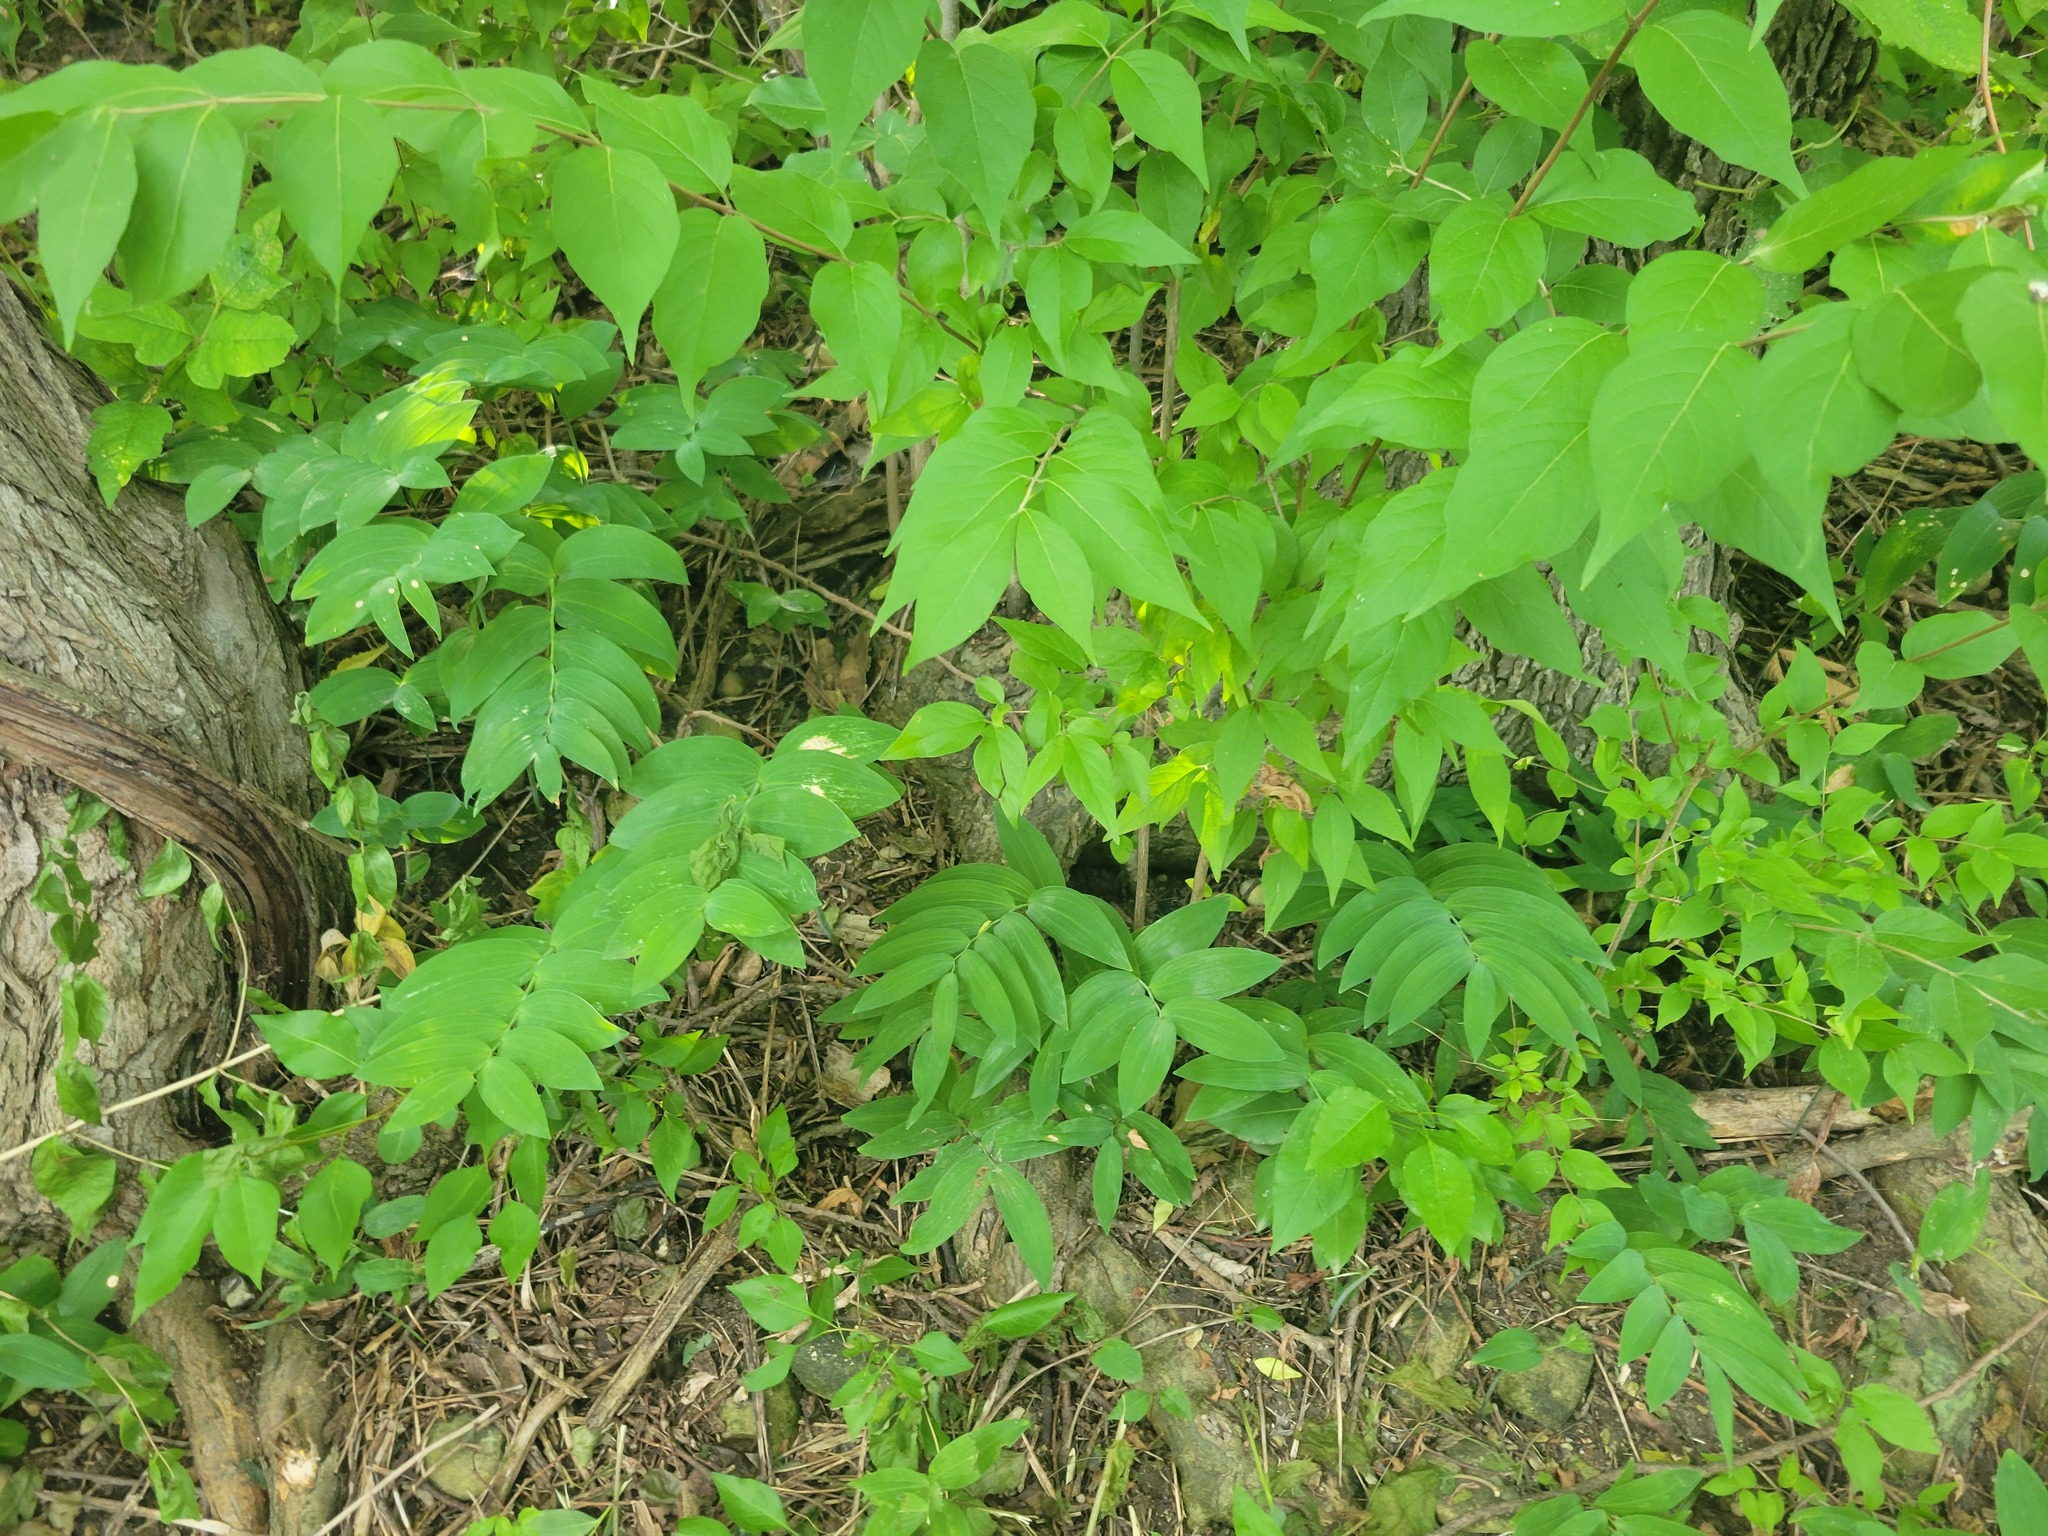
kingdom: Plantae
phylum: Tracheophyta
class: Liliopsida
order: Asparagales
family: Asparagaceae
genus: Polygonatum
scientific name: Polygonatum biflorum
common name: American solomon's-seal
